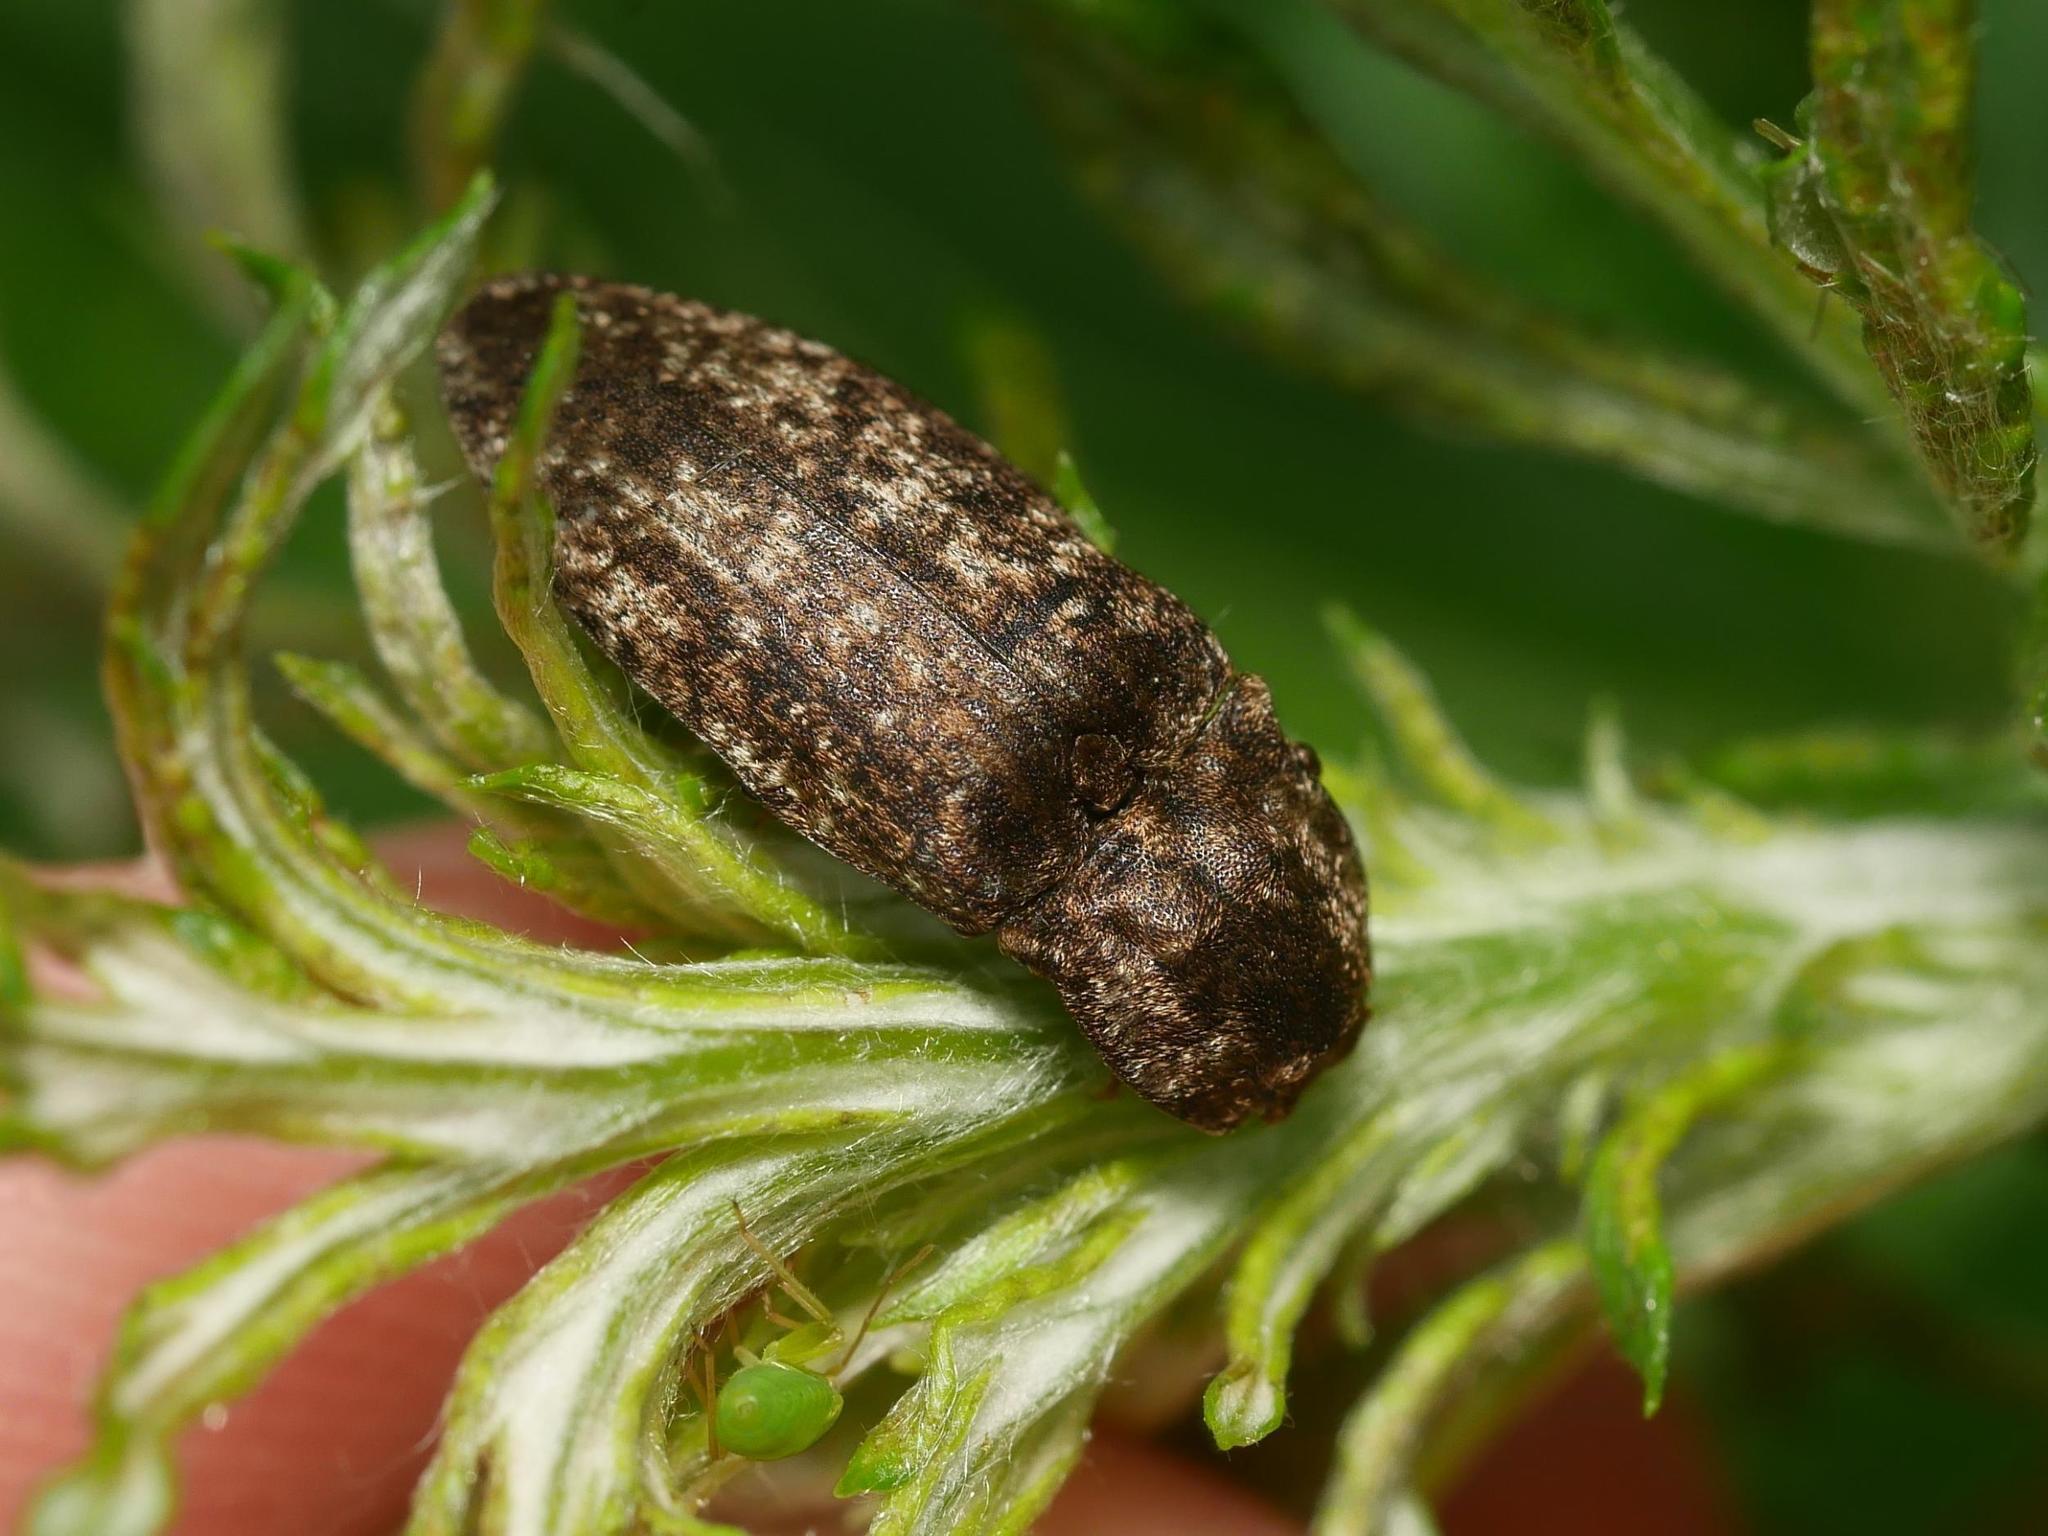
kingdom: Animalia
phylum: Arthropoda
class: Insecta
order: Coleoptera
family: Elateridae
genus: Agrypnus
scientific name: Agrypnus murinus
